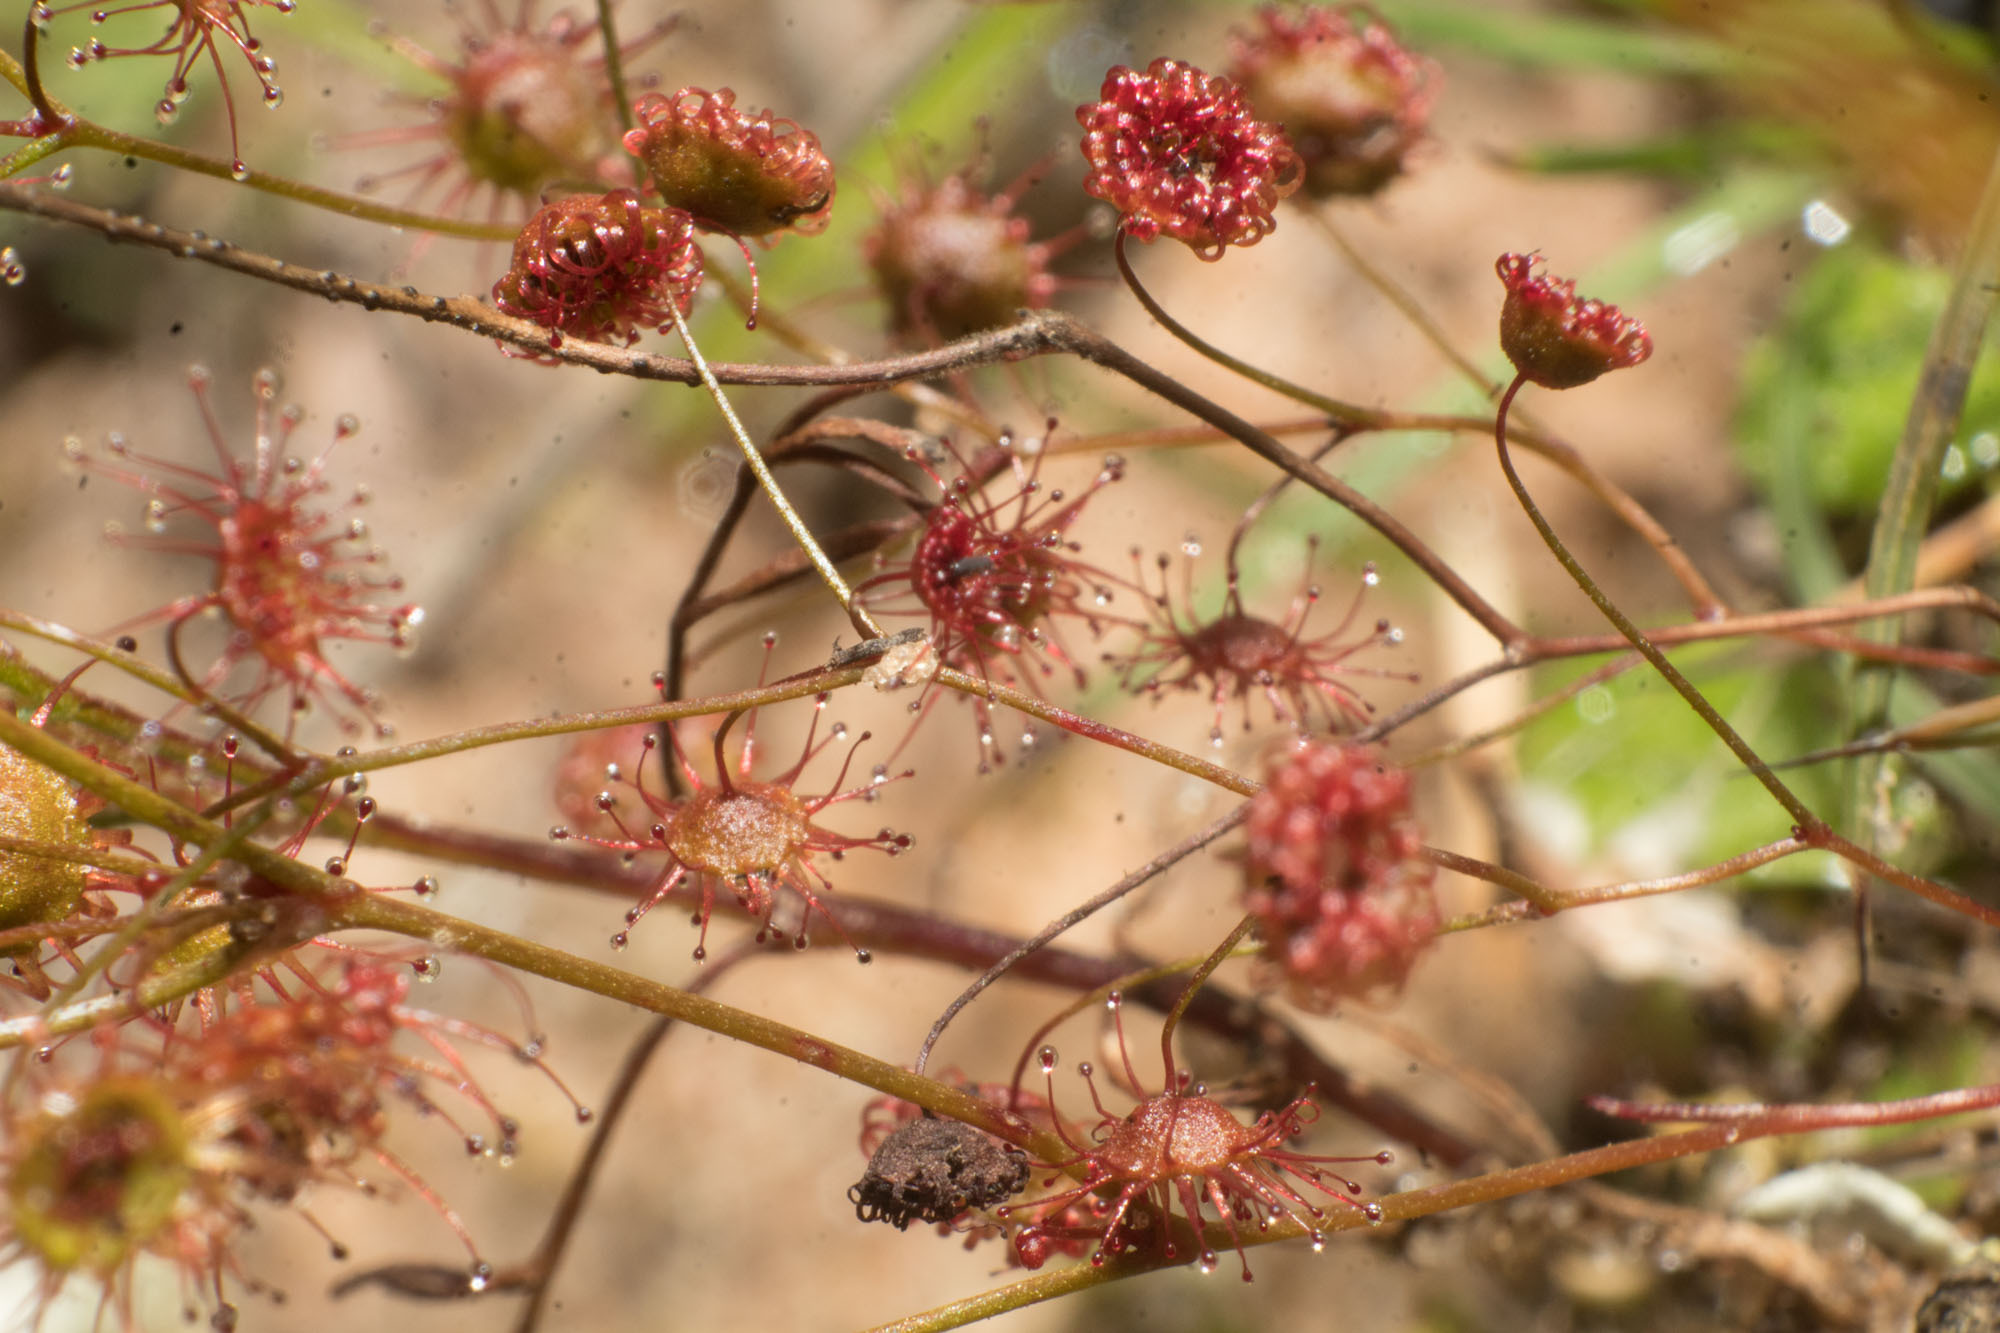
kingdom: Plantae
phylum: Tracheophyta
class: Magnoliopsida
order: Caryophyllales
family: Droseraceae
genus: Drosera
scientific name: Drosera macrantha
